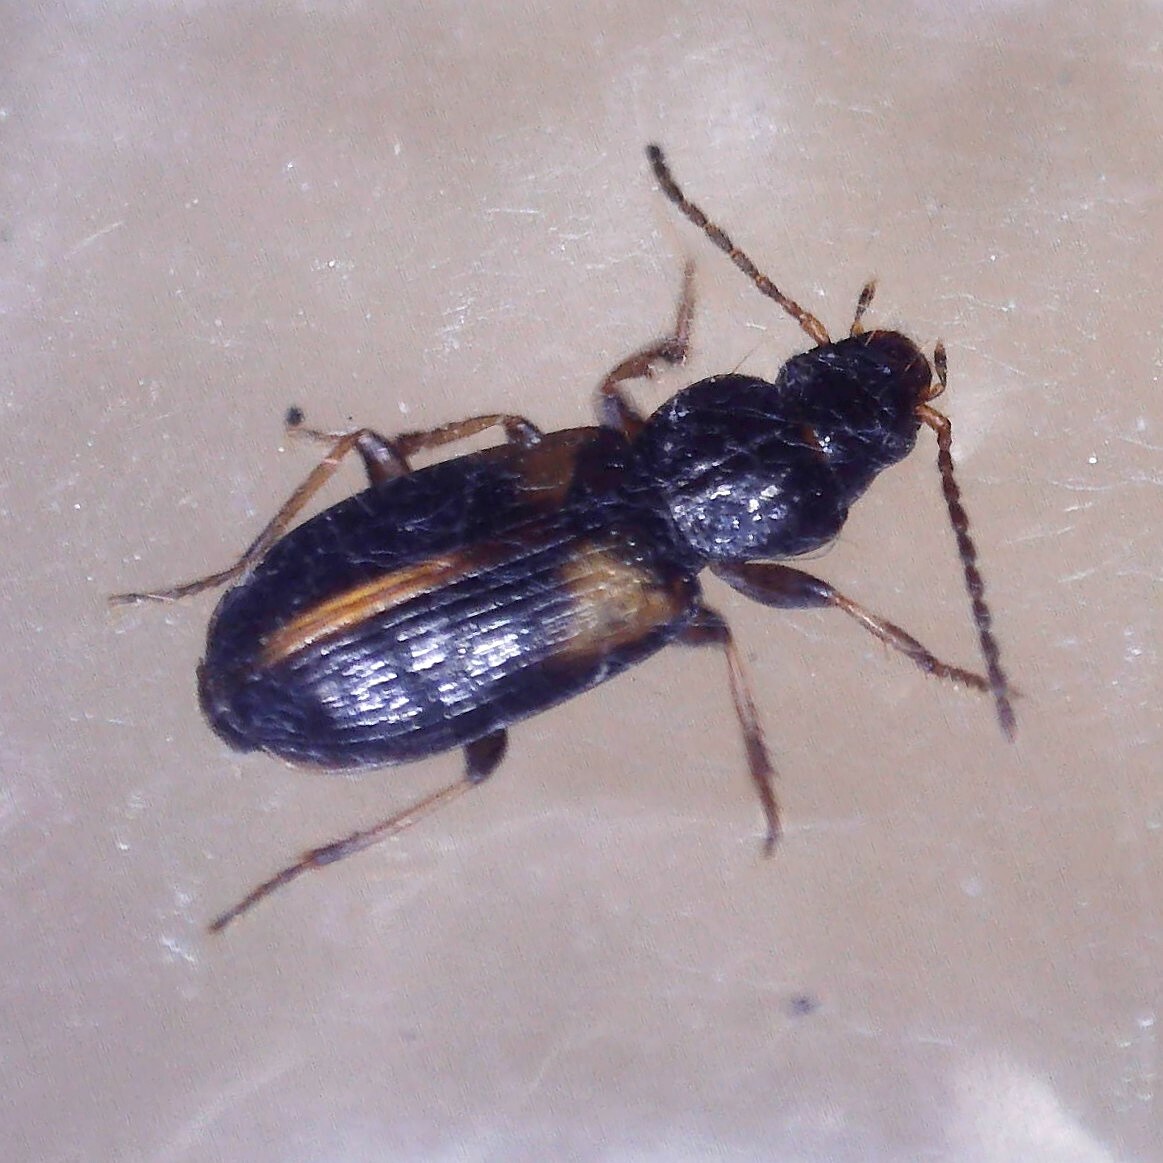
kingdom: Animalia
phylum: Arthropoda
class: Insecta
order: Coleoptera
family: Carabidae
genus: Acupalpus
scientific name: Acupalpus meridianus
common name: Midday harp ground beetle
